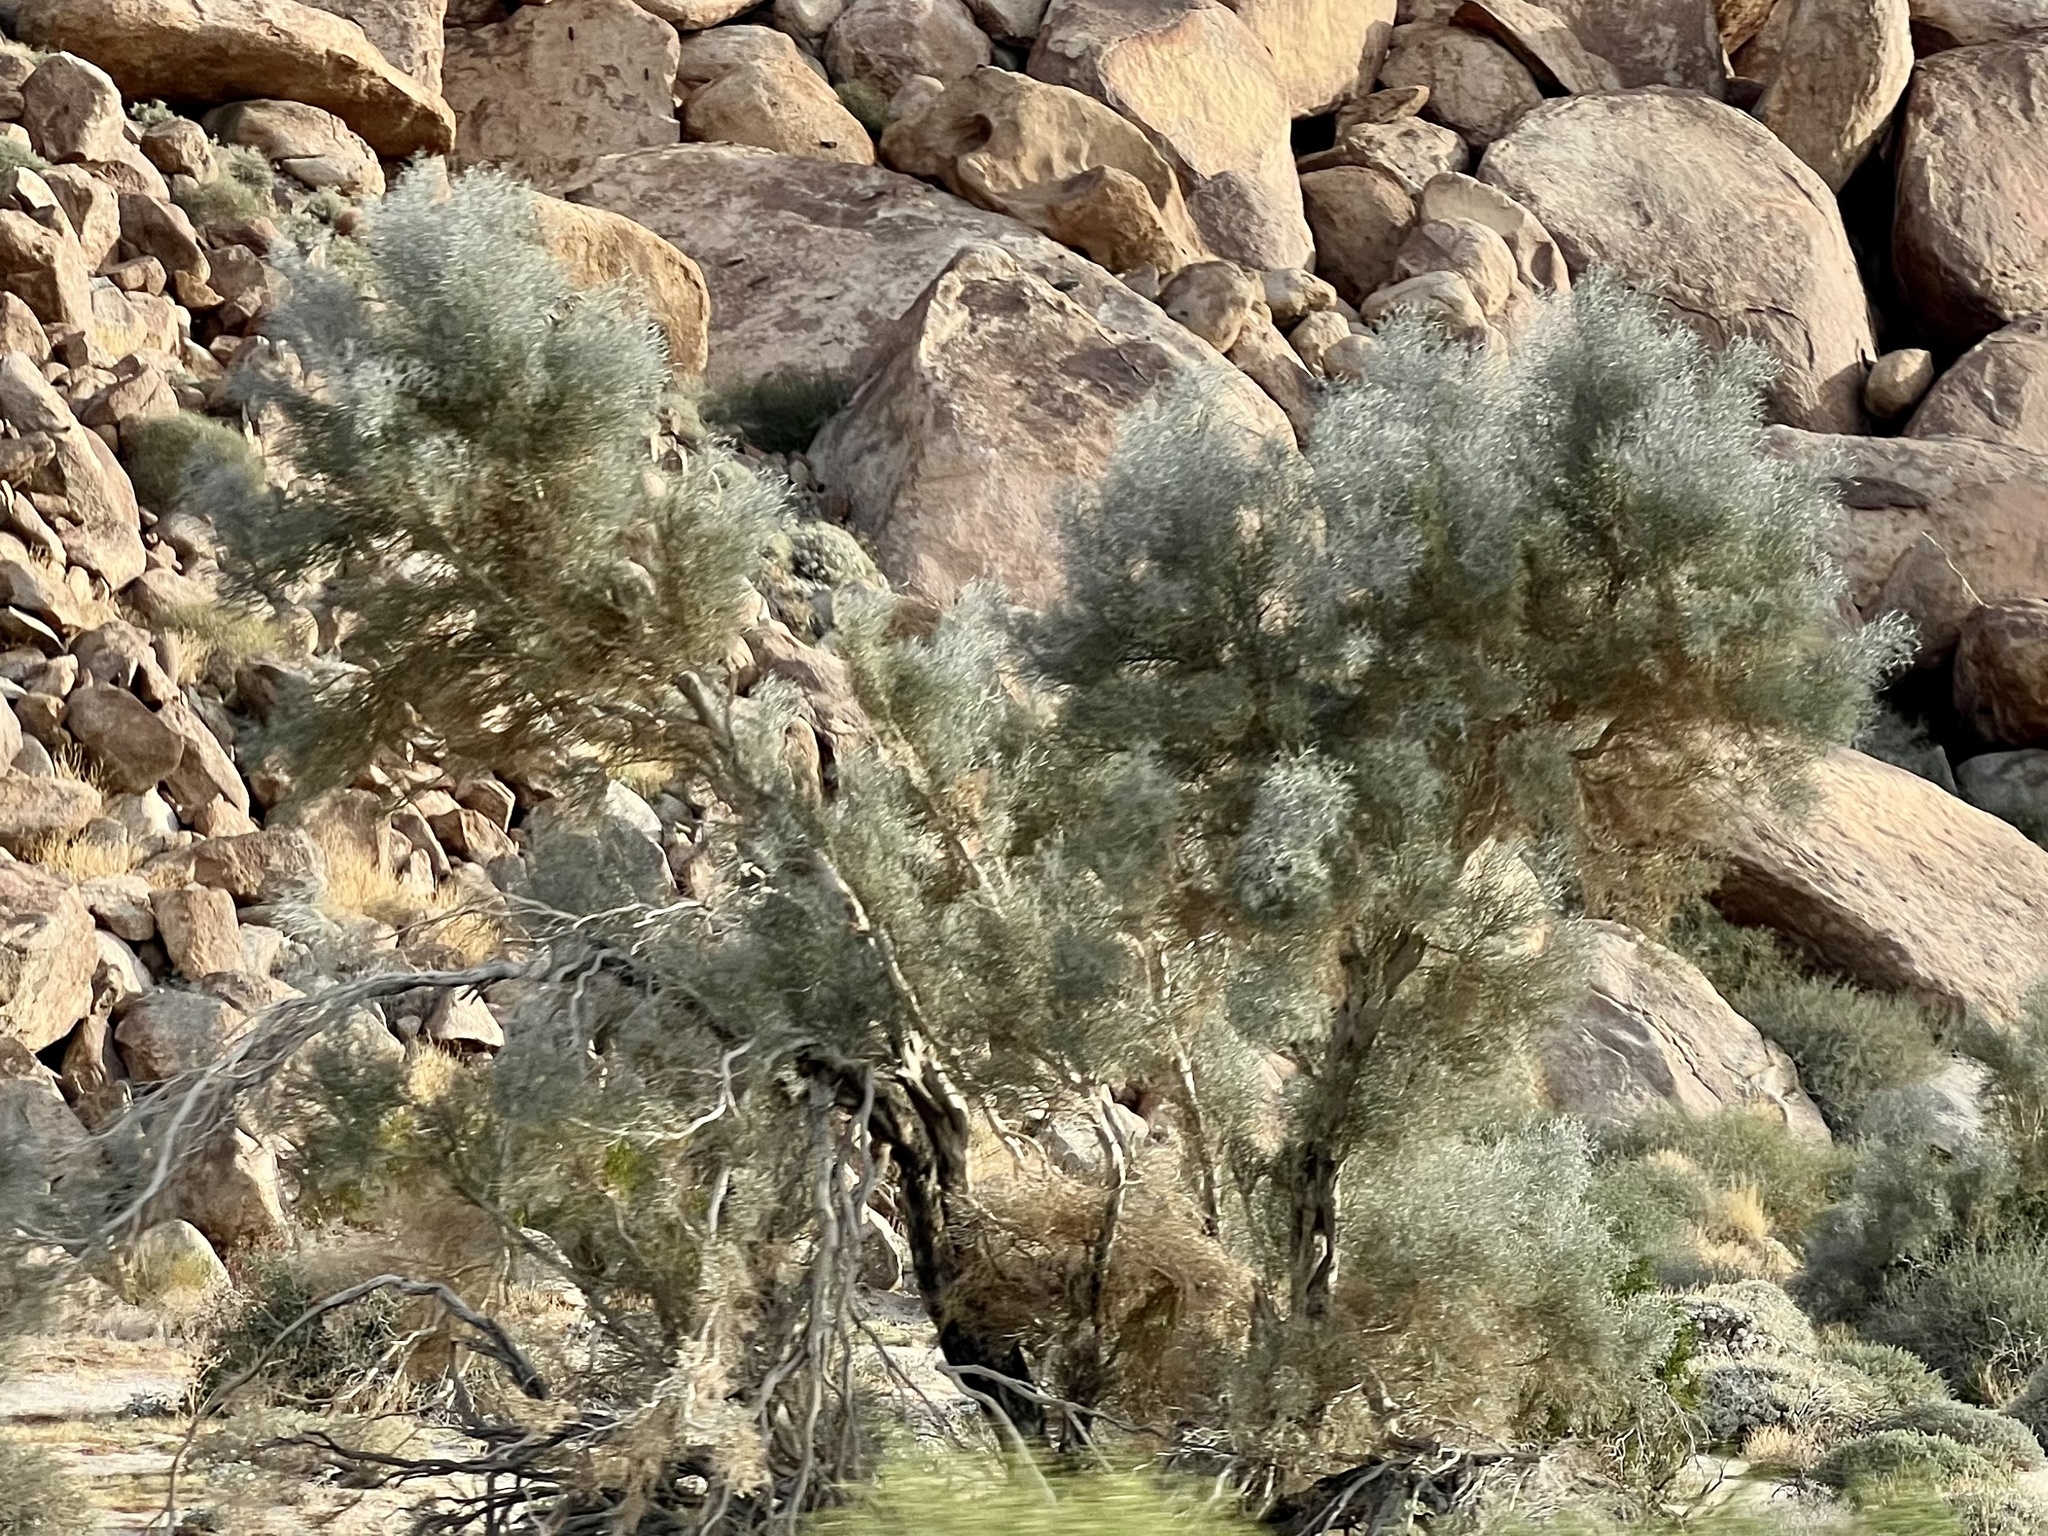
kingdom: Plantae
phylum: Tracheophyta
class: Magnoliopsida
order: Fabales
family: Fabaceae
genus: Psorothamnus
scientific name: Psorothamnus spinosus
